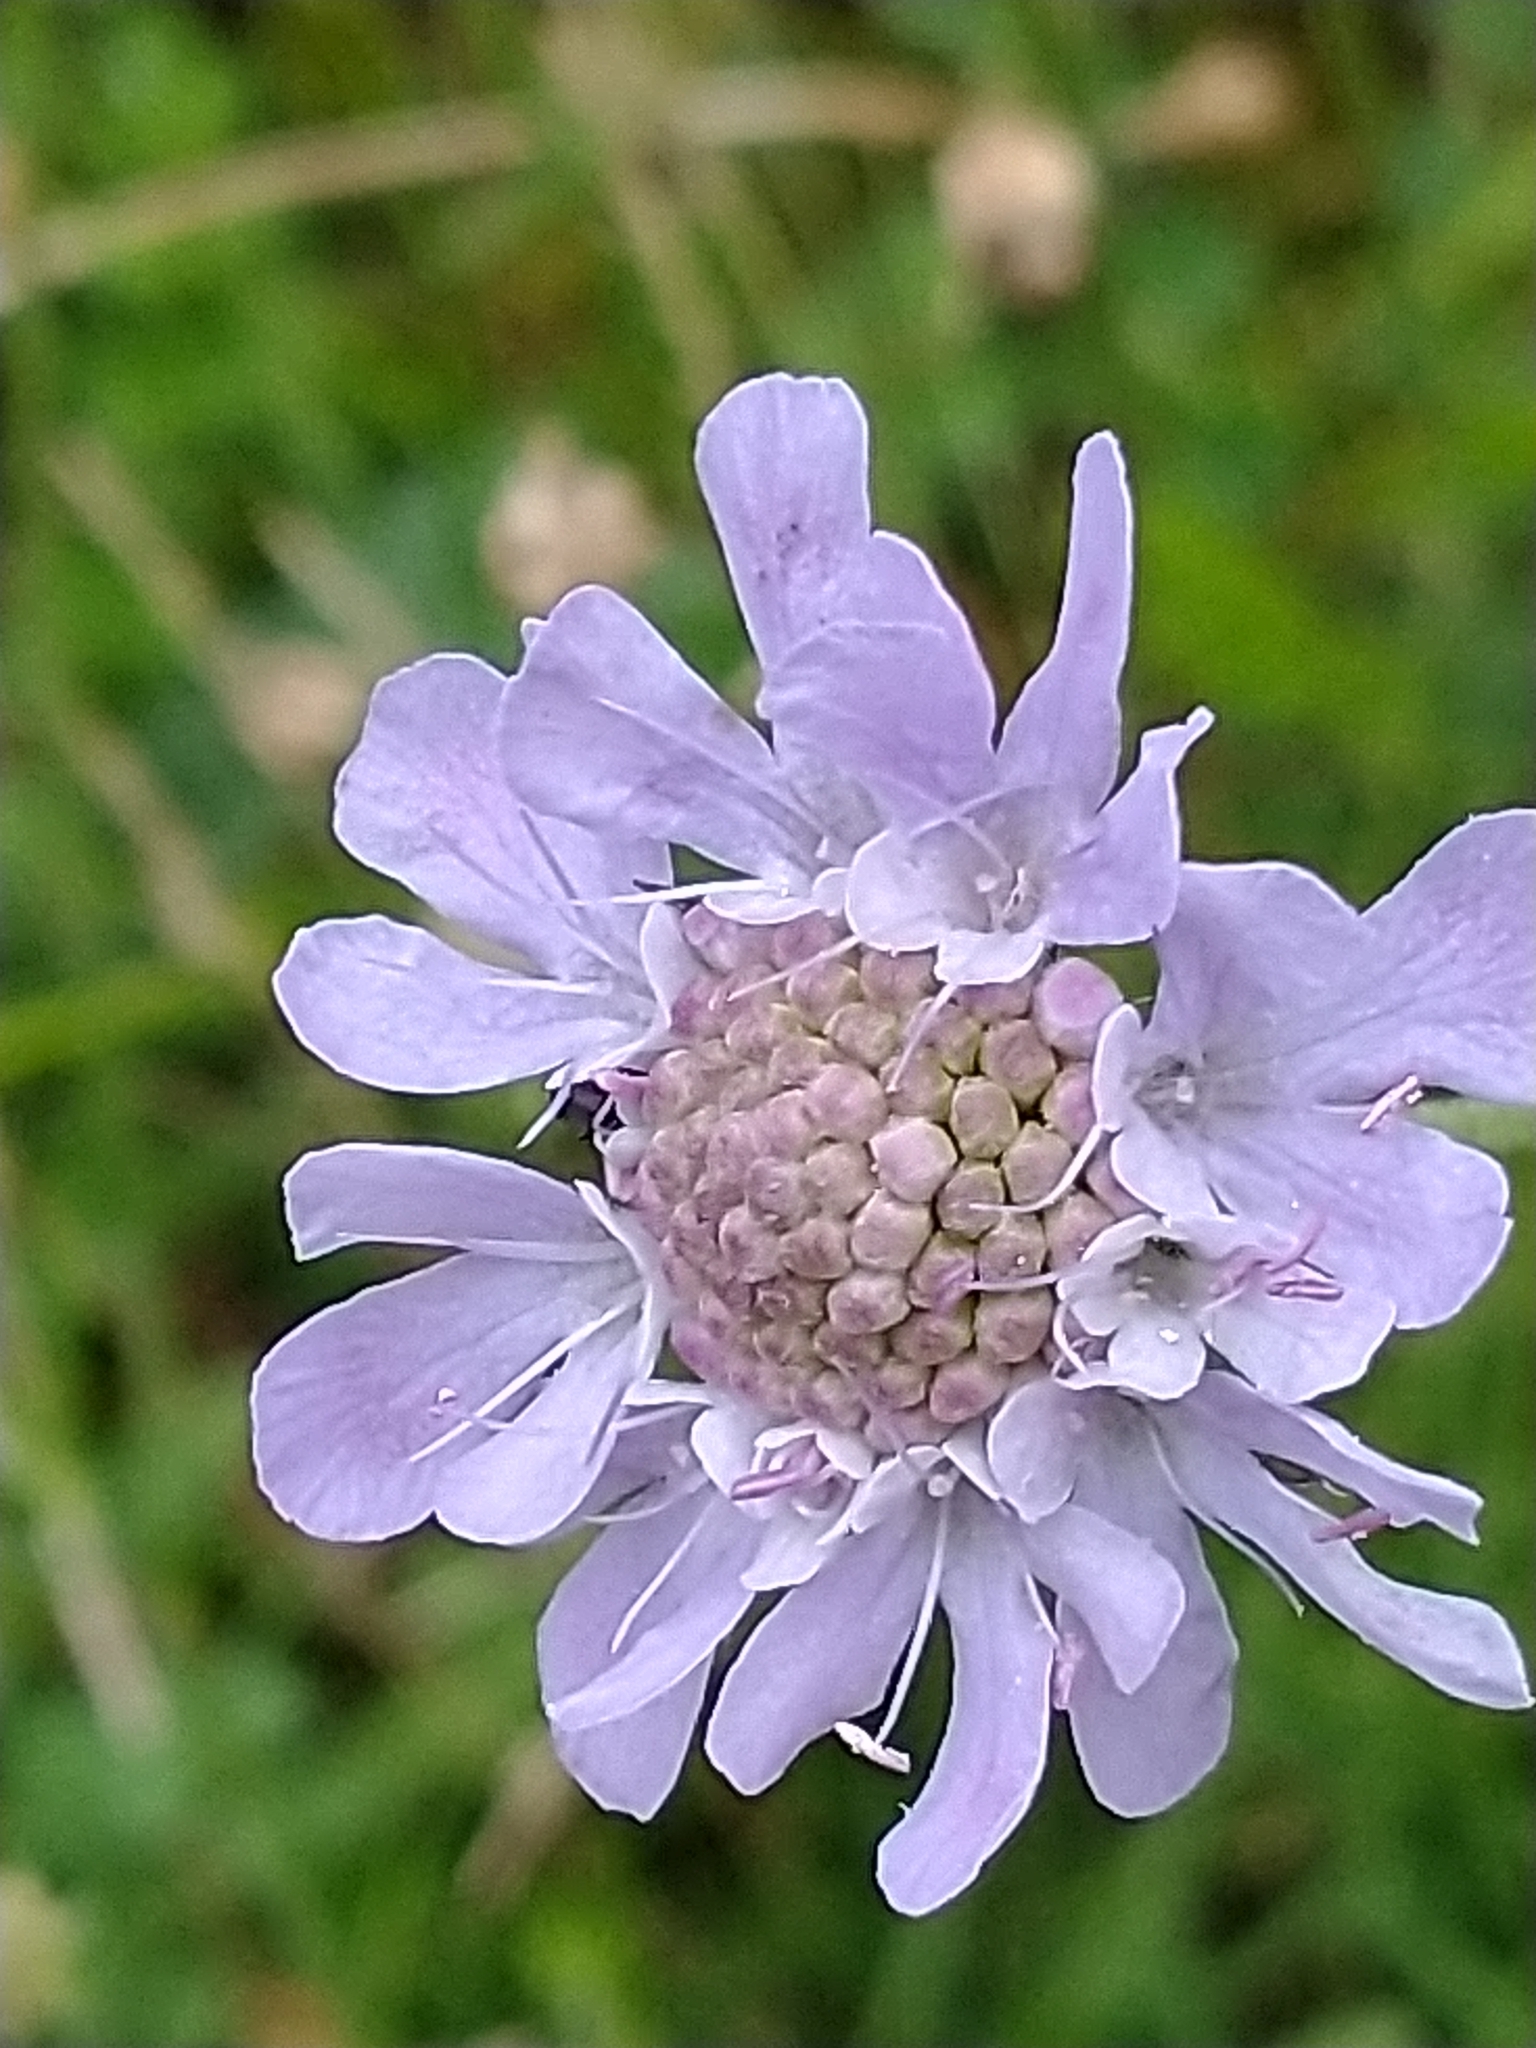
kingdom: Plantae
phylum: Tracheophyta
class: Magnoliopsida
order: Dipsacales
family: Caprifoliaceae
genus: Scabiosa
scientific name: Scabiosa columbaria
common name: Small scabious
